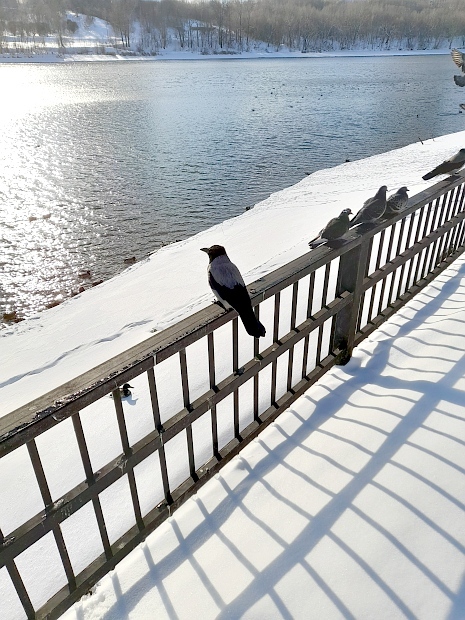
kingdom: Animalia
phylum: Chordata
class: Aves
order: Passeriformes
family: Corvidae
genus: Corvus
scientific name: Corvus cornix
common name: Hooded crow
